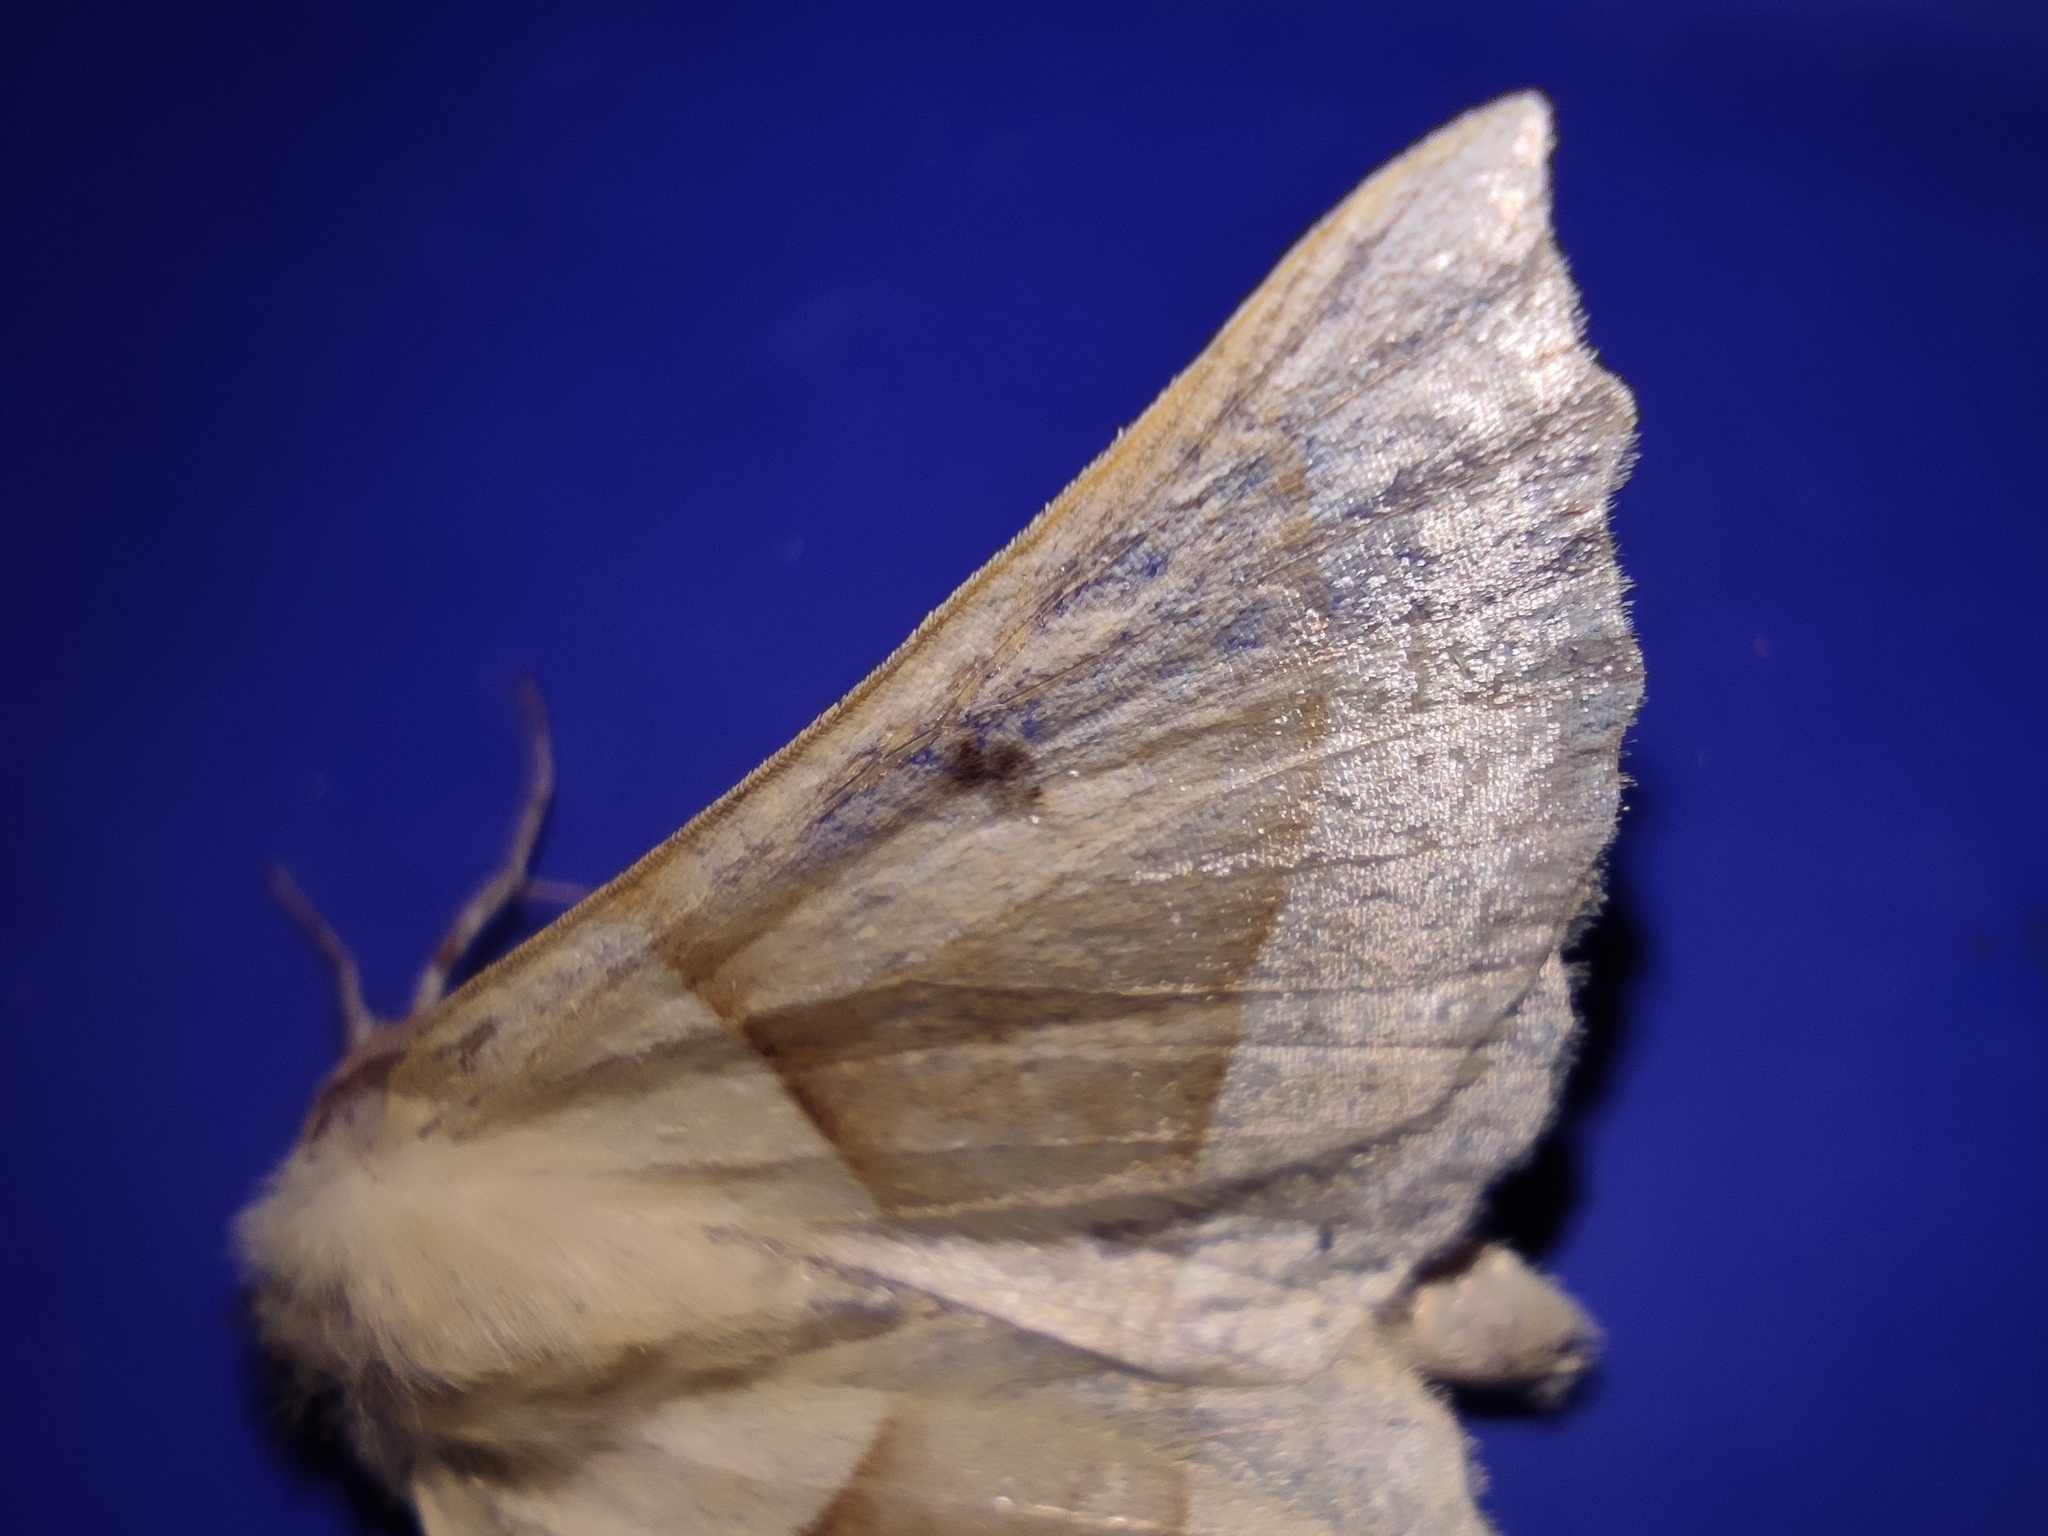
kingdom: Animalia
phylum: Arthropoda
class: Insecta
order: Lepidoptera
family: Geometridae
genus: Crocallis
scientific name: Crocallis elinguaria
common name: Scalloped oak
